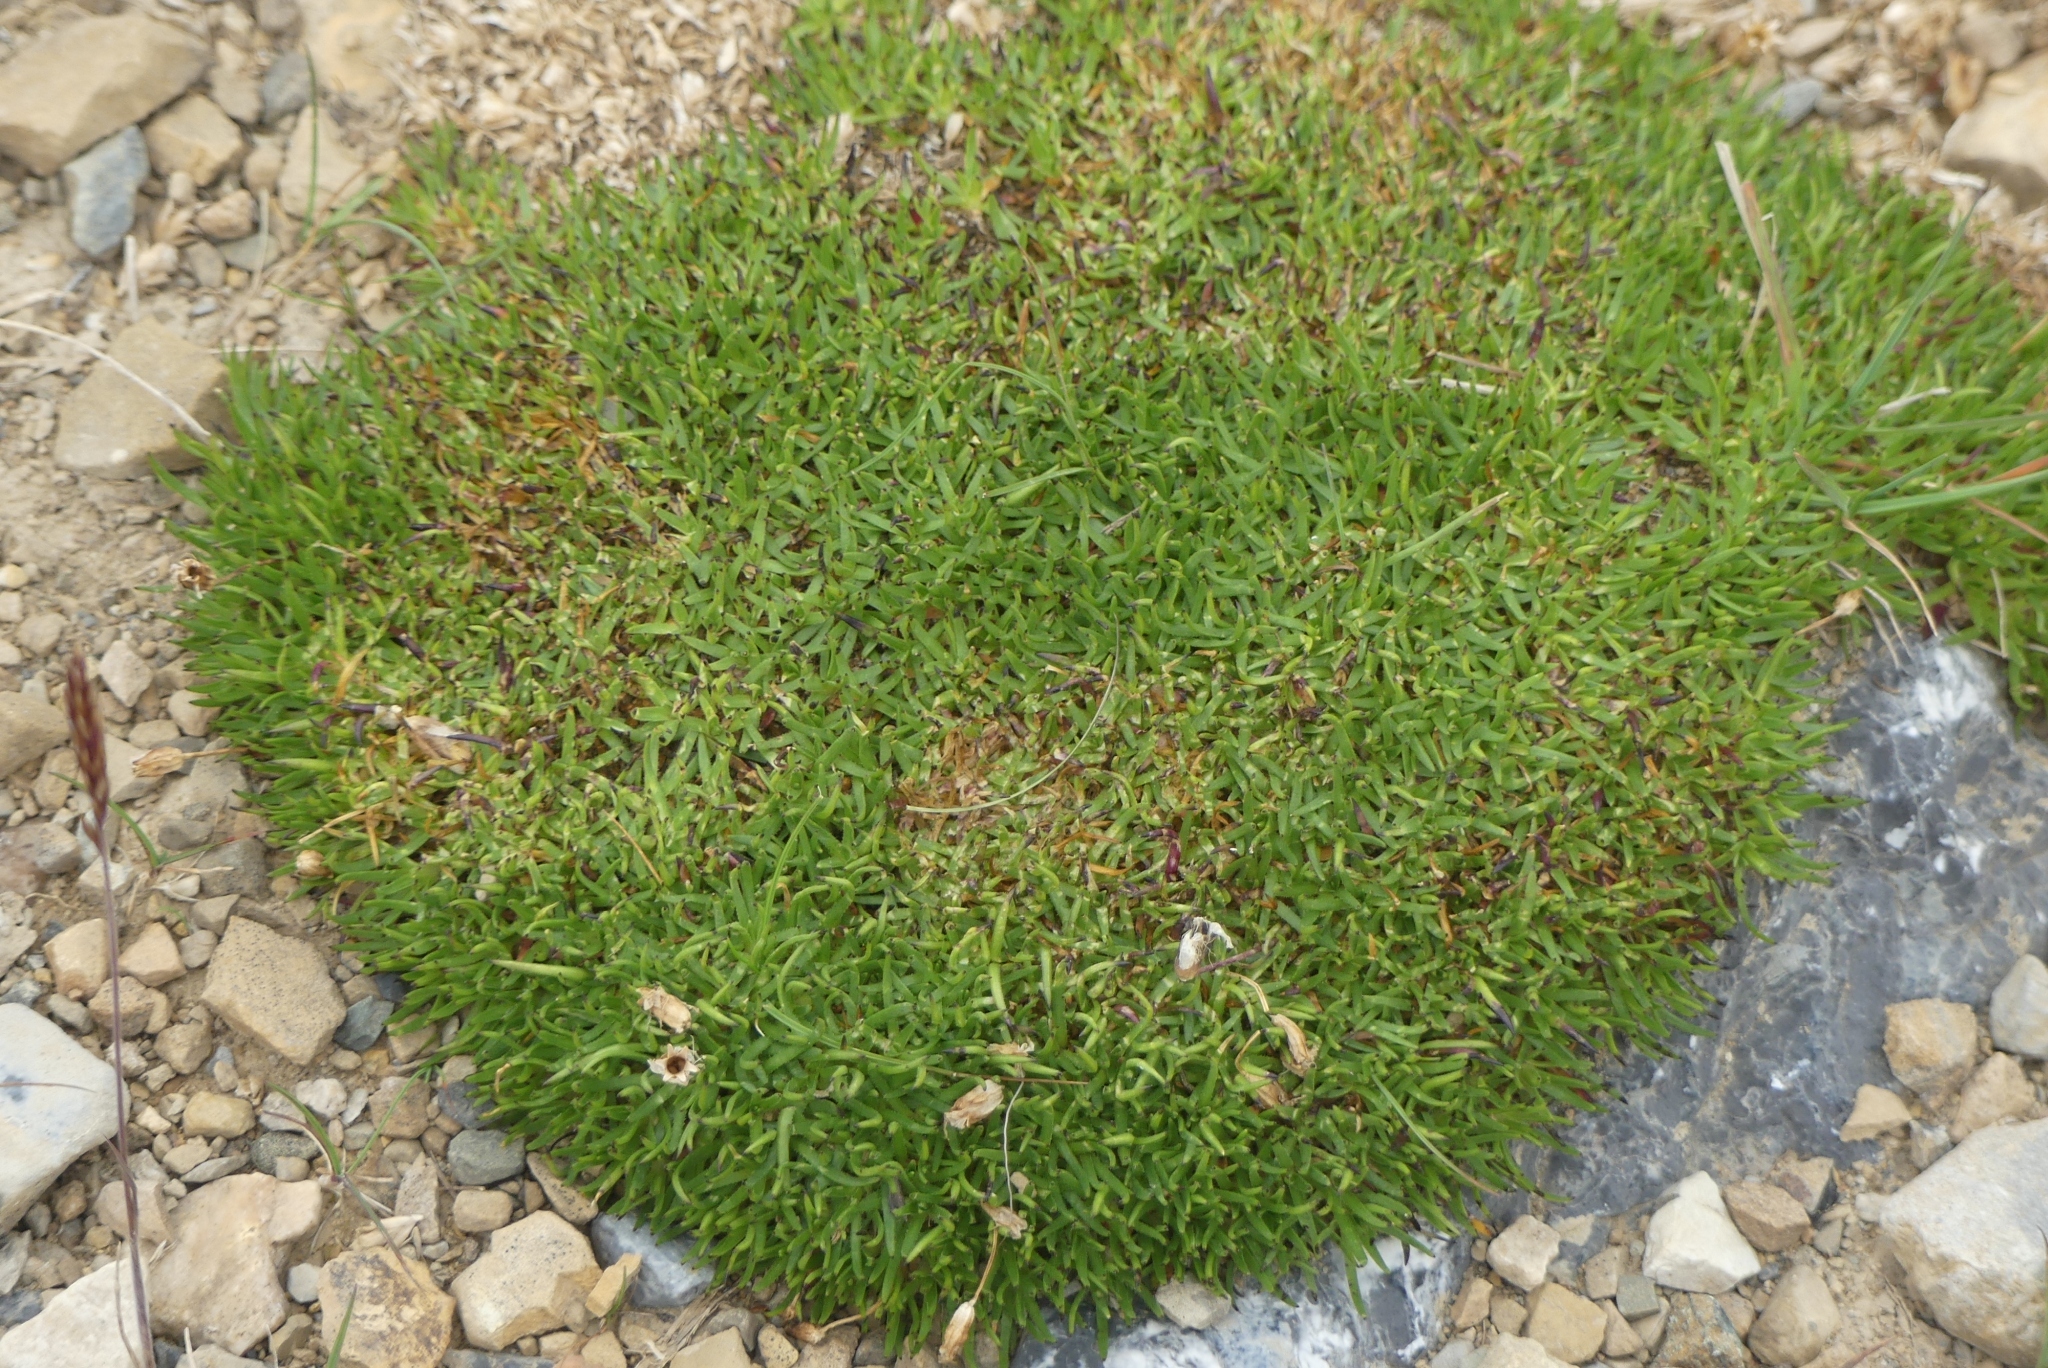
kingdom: Plantae
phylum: Tracheophyta
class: Magnoliopsida
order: Caryophyllales
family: Caryophyllaceae
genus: Silene
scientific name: Silene acaulis
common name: Moss campion
